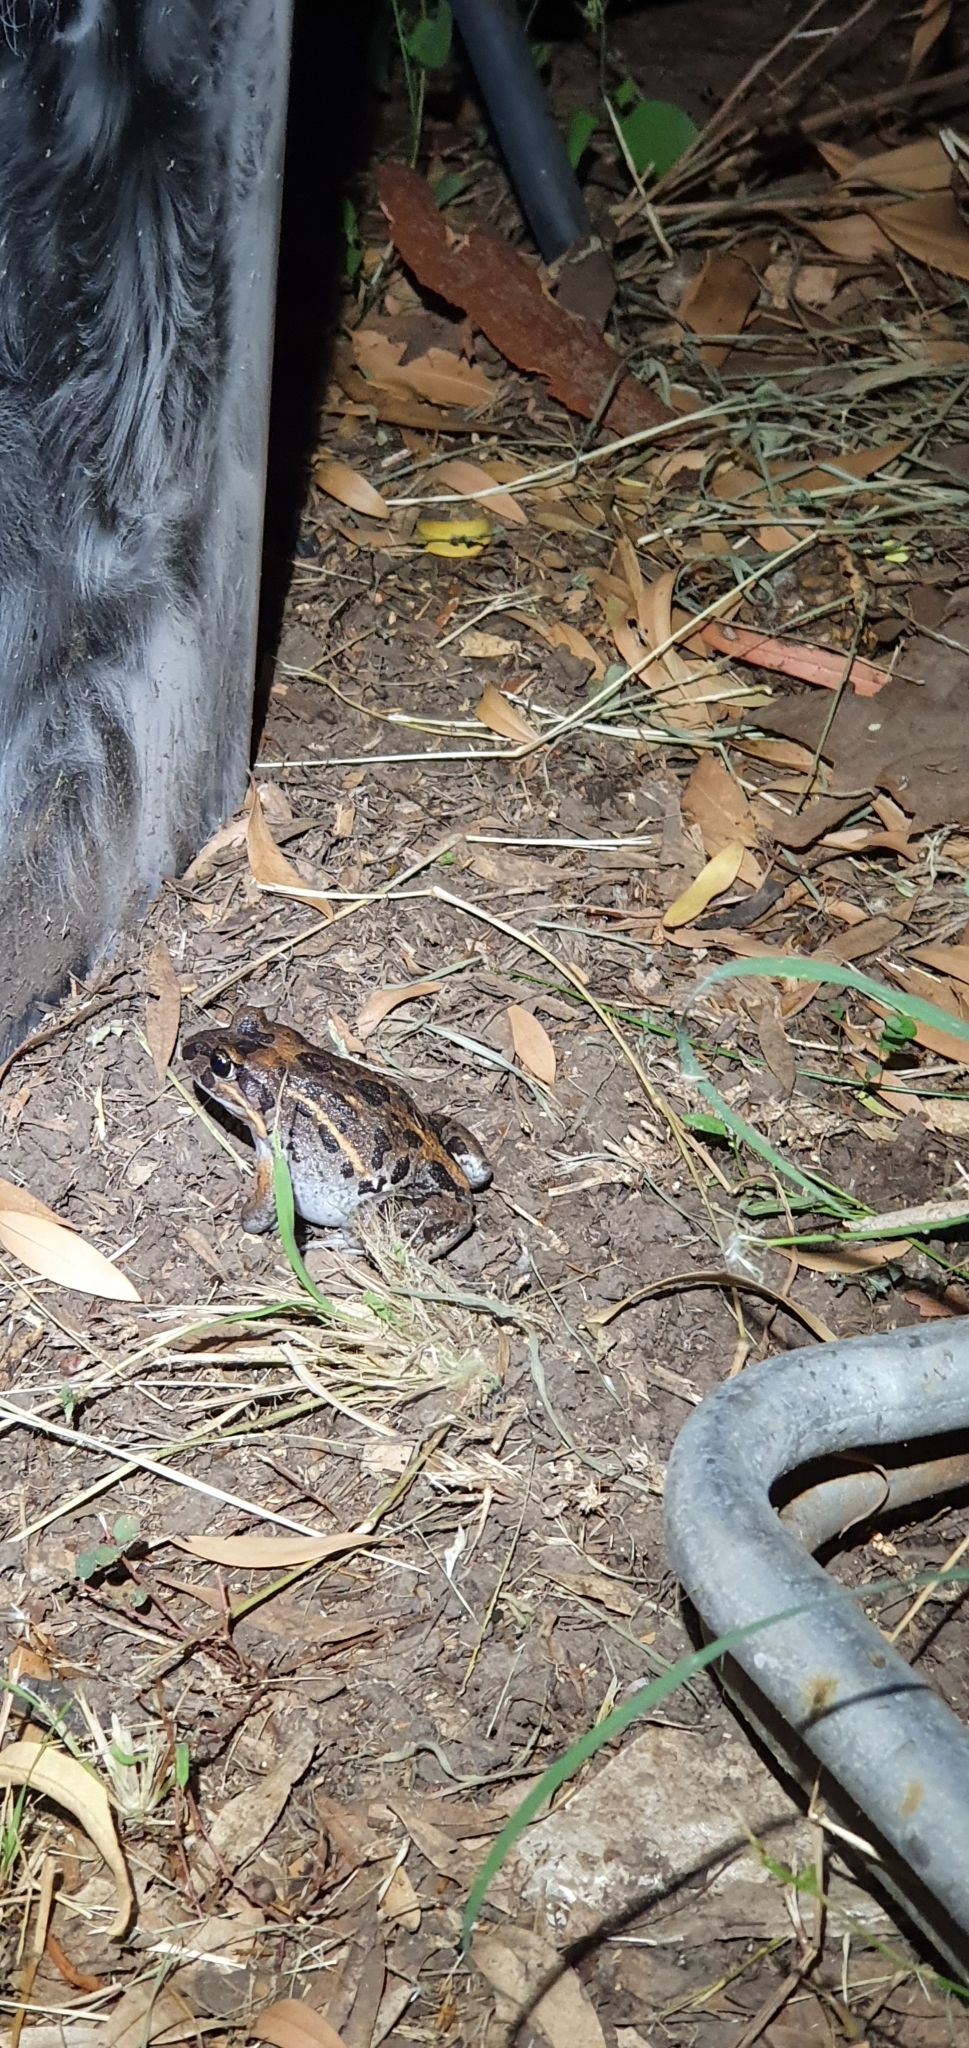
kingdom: Animalia
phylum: Chordata
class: Amphibia
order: Anura
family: Limnodynastidae
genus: Limnodynastes
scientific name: Limnodynastes salmini
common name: Salmon-striped frog
